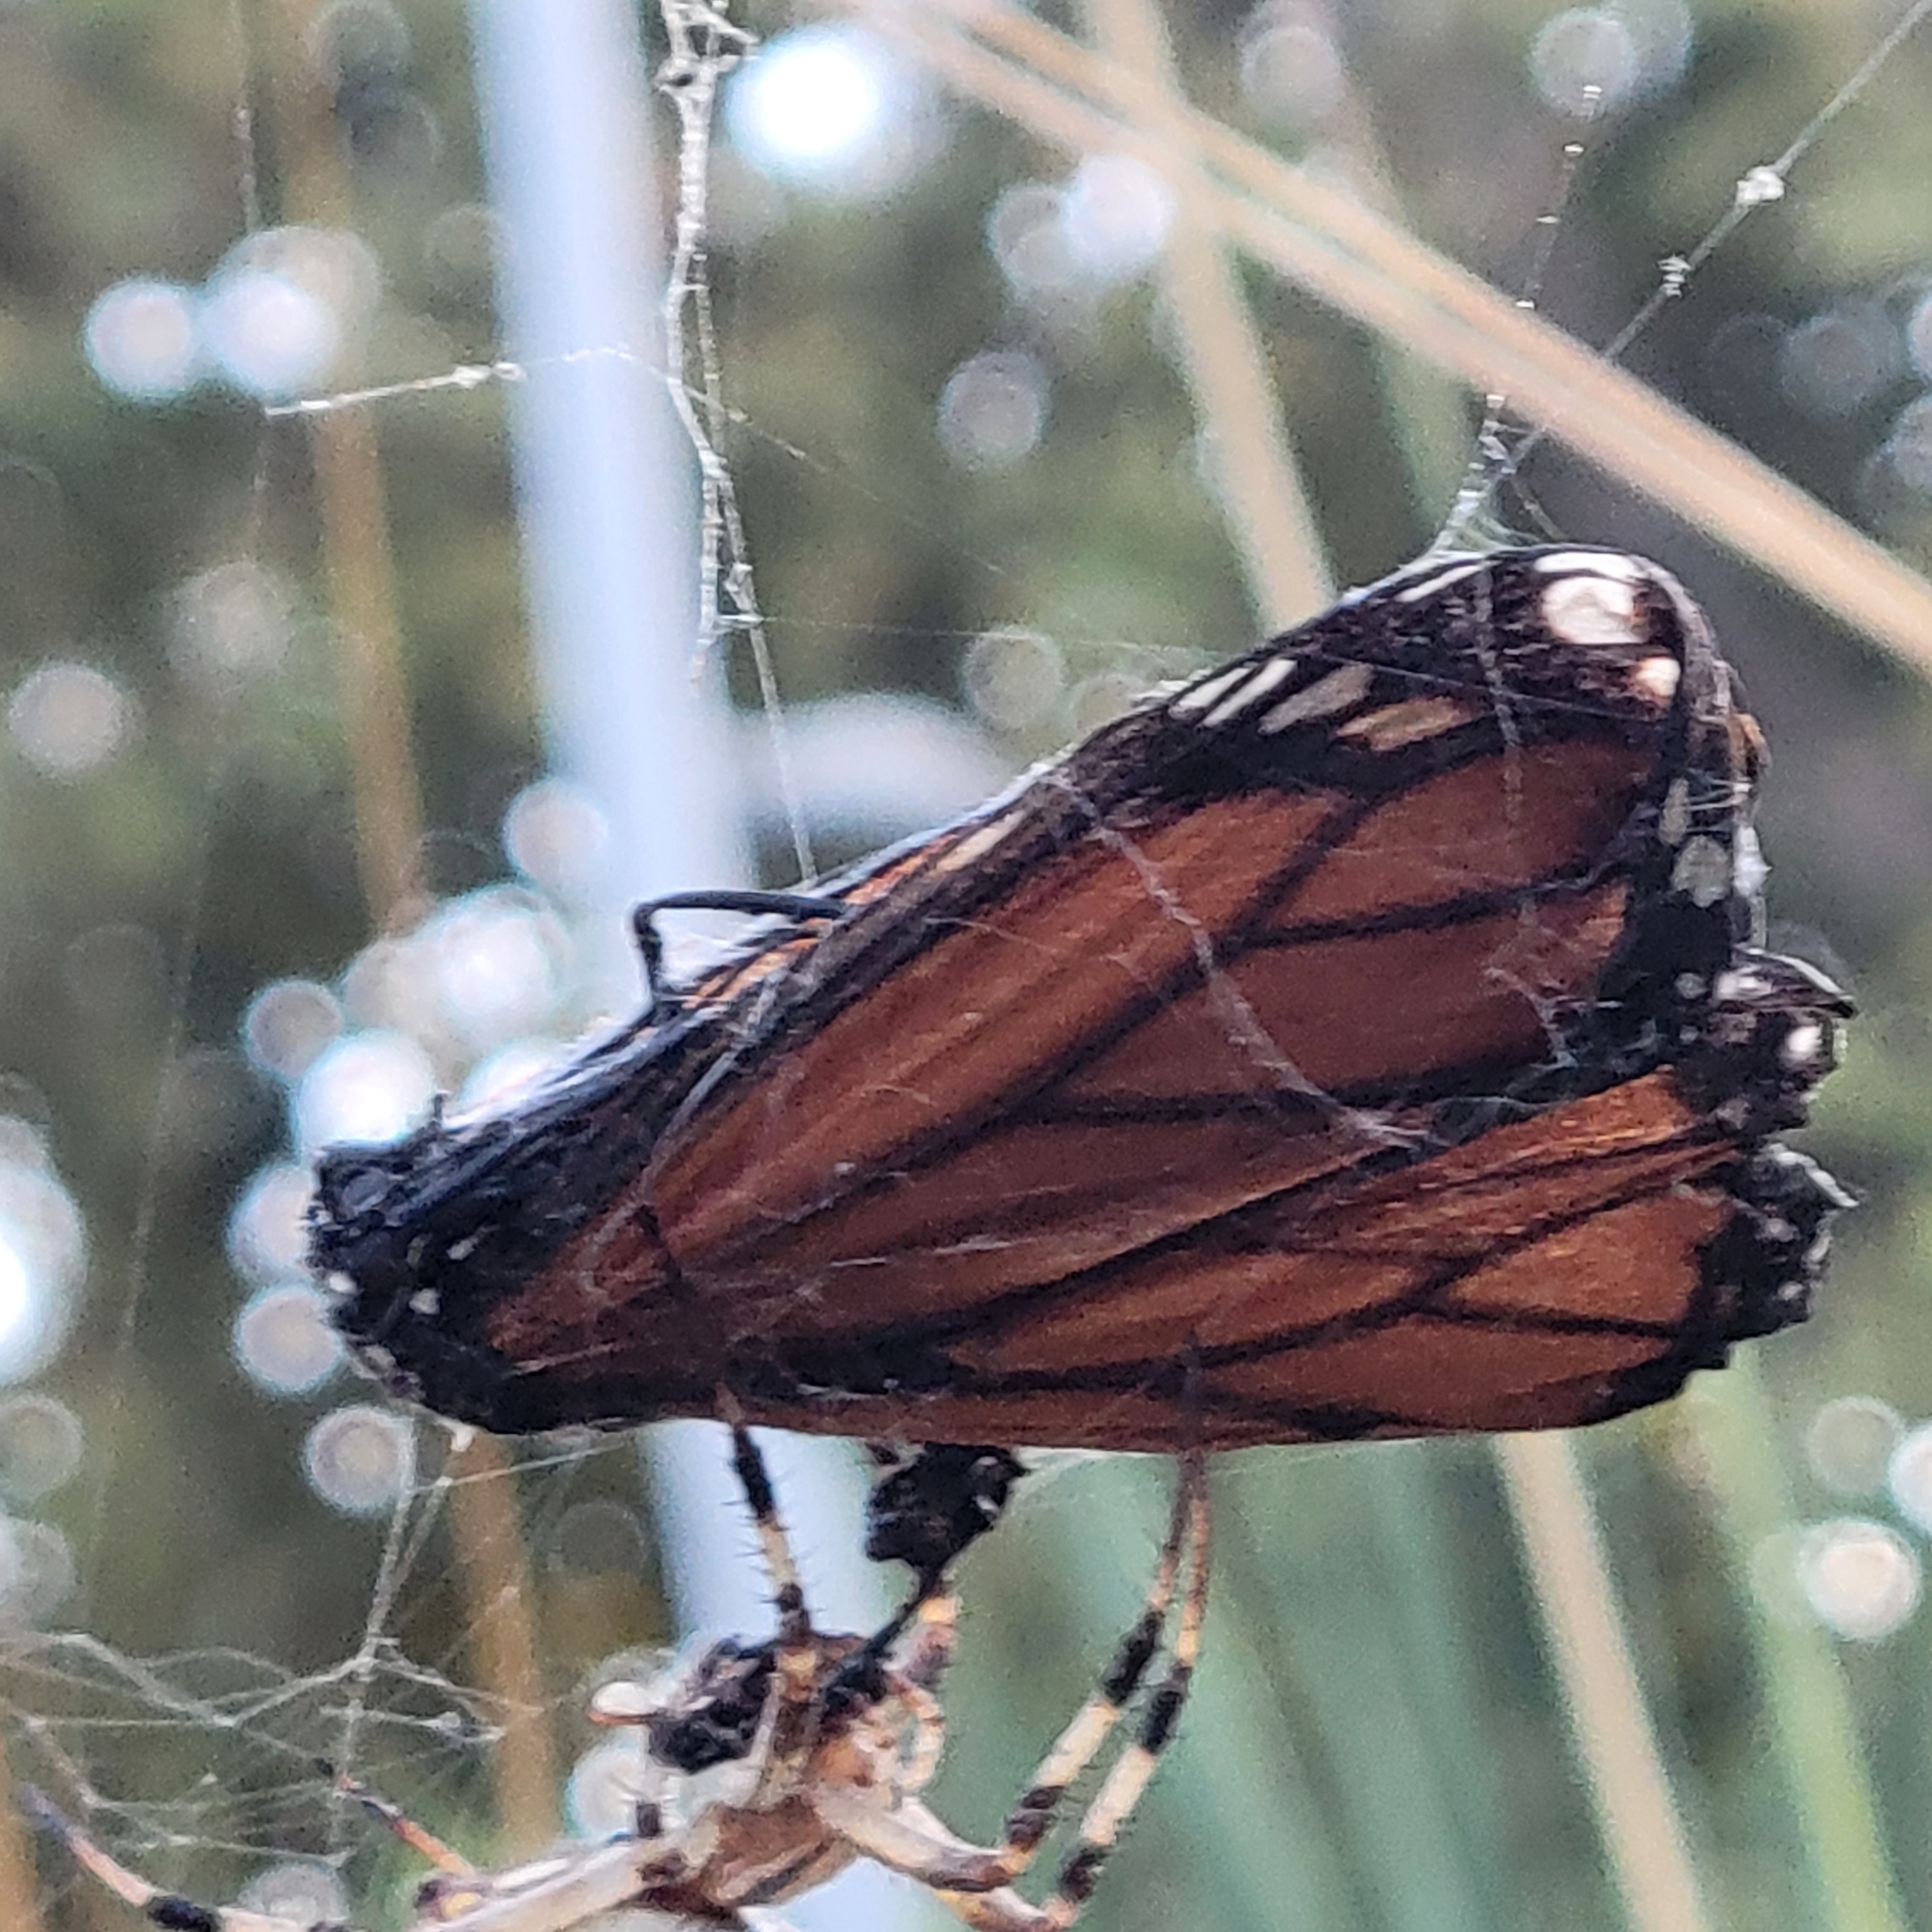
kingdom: Animalia
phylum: Arthropoda
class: Insecta
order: Lepidoptera
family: Nymphalidae
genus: Danaus
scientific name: Danaus plexippus
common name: Monarch
